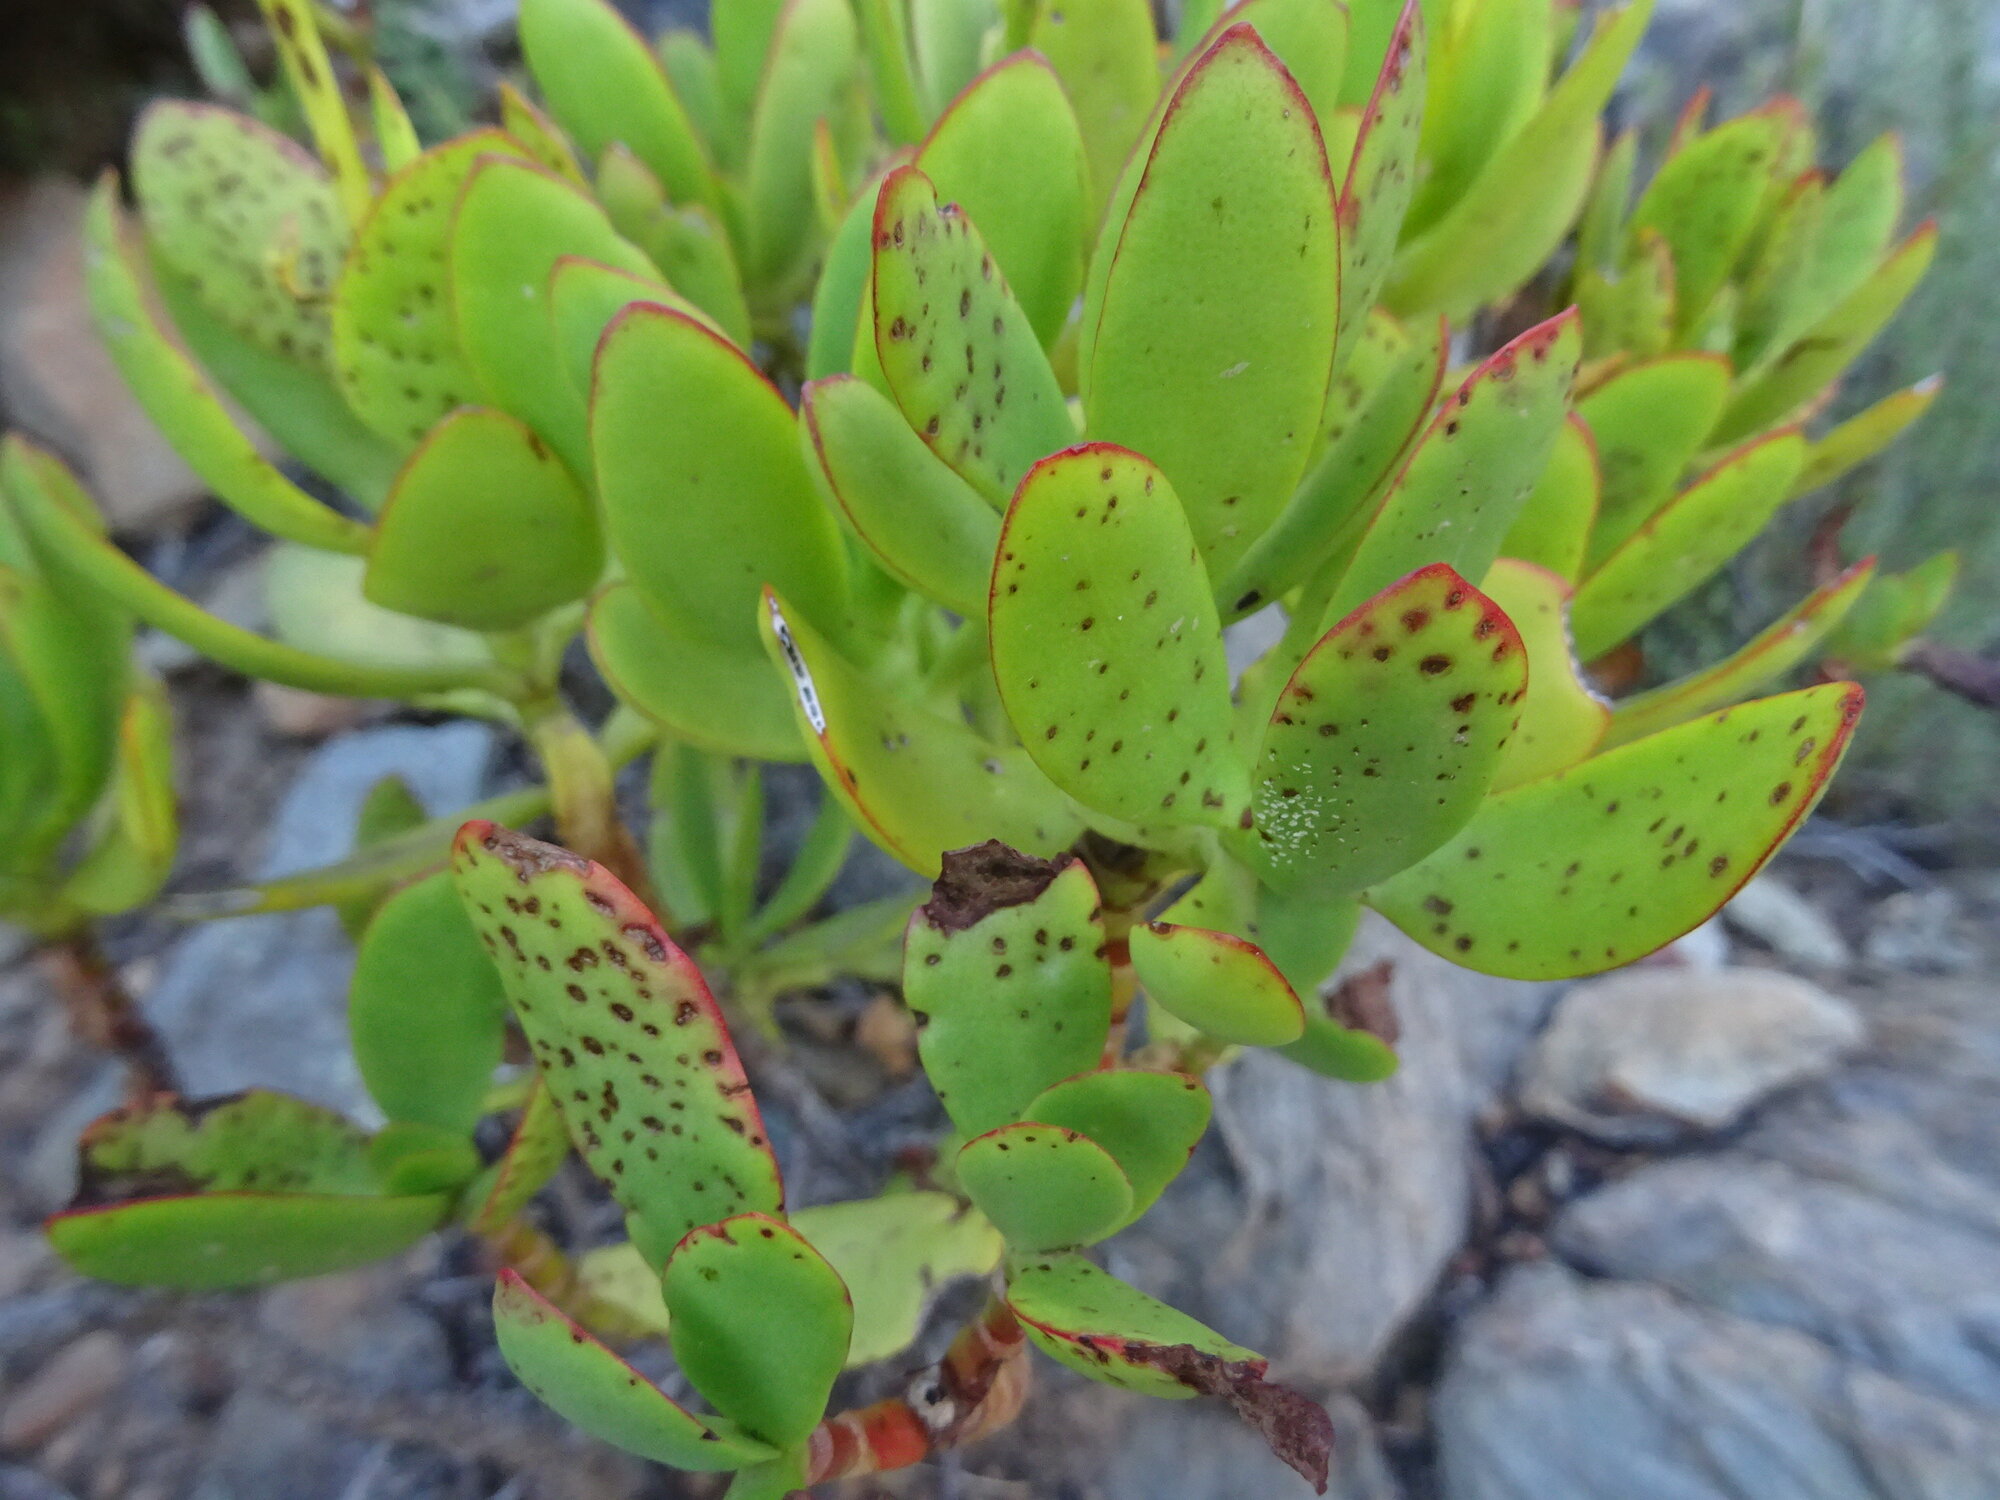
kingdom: Plantae
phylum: Tracheophyta
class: Magnoliopsida
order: Saxifragales
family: Crassulaceae
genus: Crassula
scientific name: Crassula cultrata
